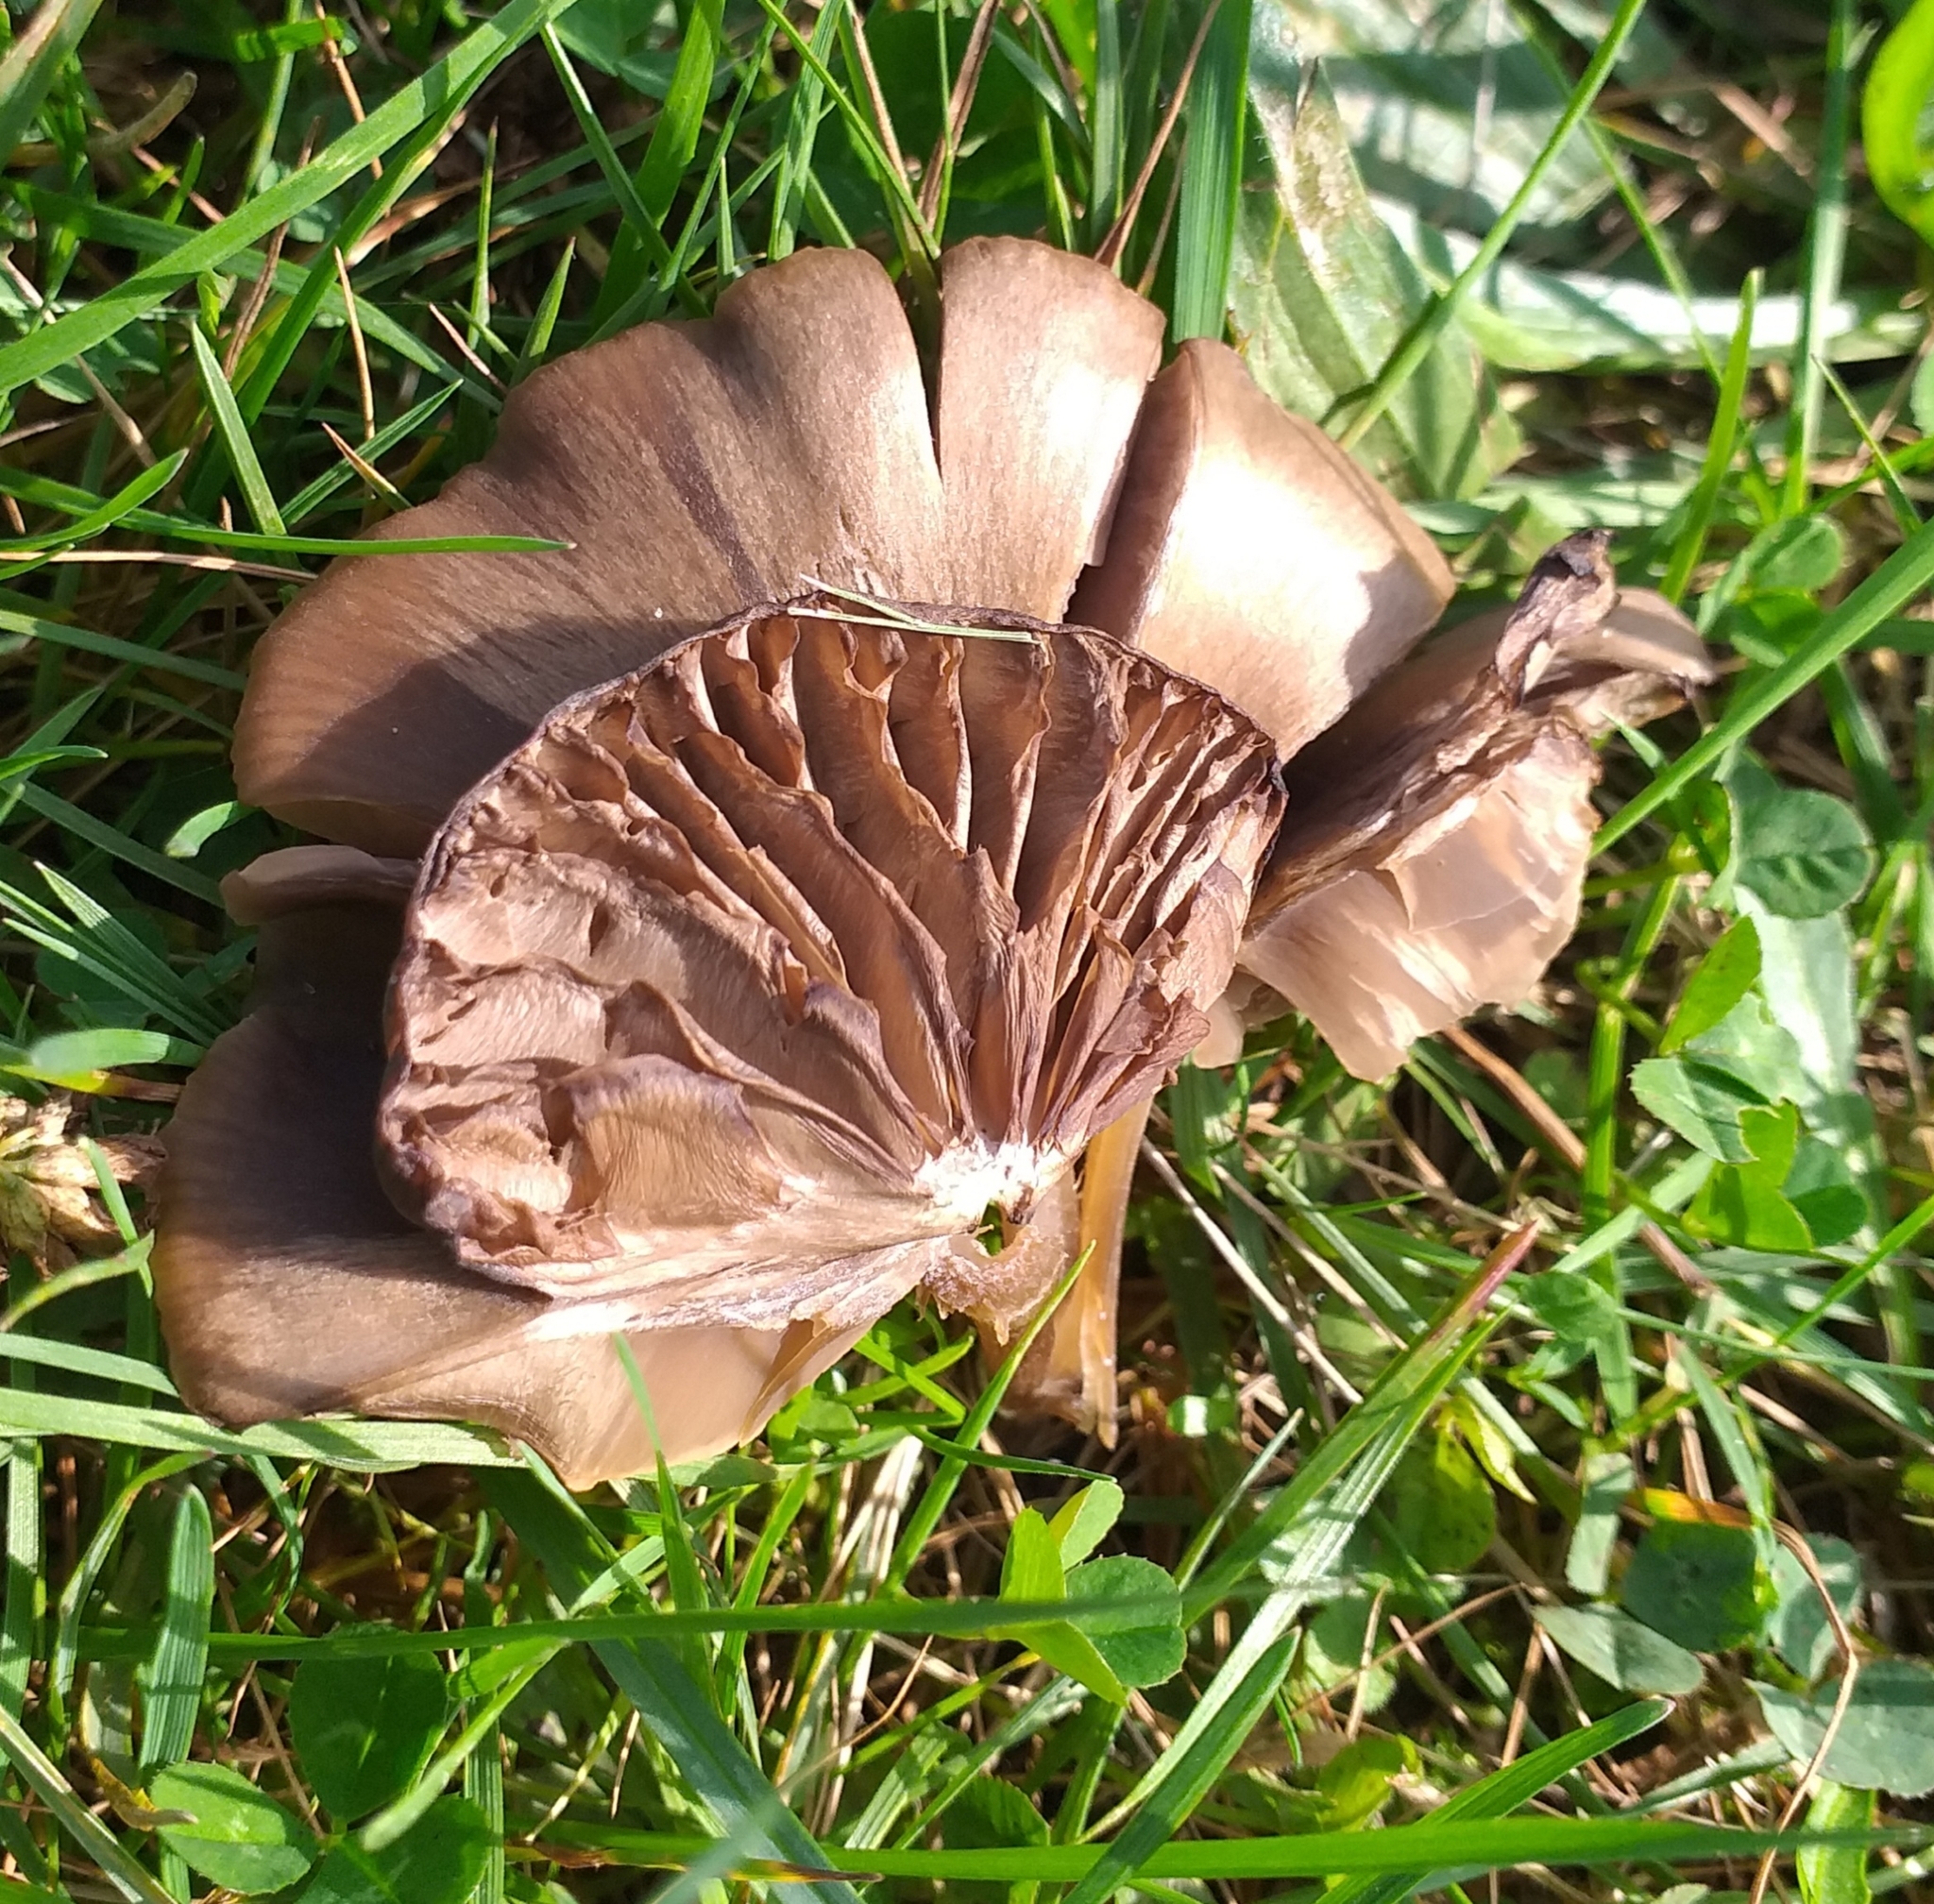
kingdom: Fungi
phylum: Basidiomycota
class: Agaricomycetes
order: Agaricales
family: Entolomataceae
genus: Entoloma
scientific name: Entoloma sericeum
